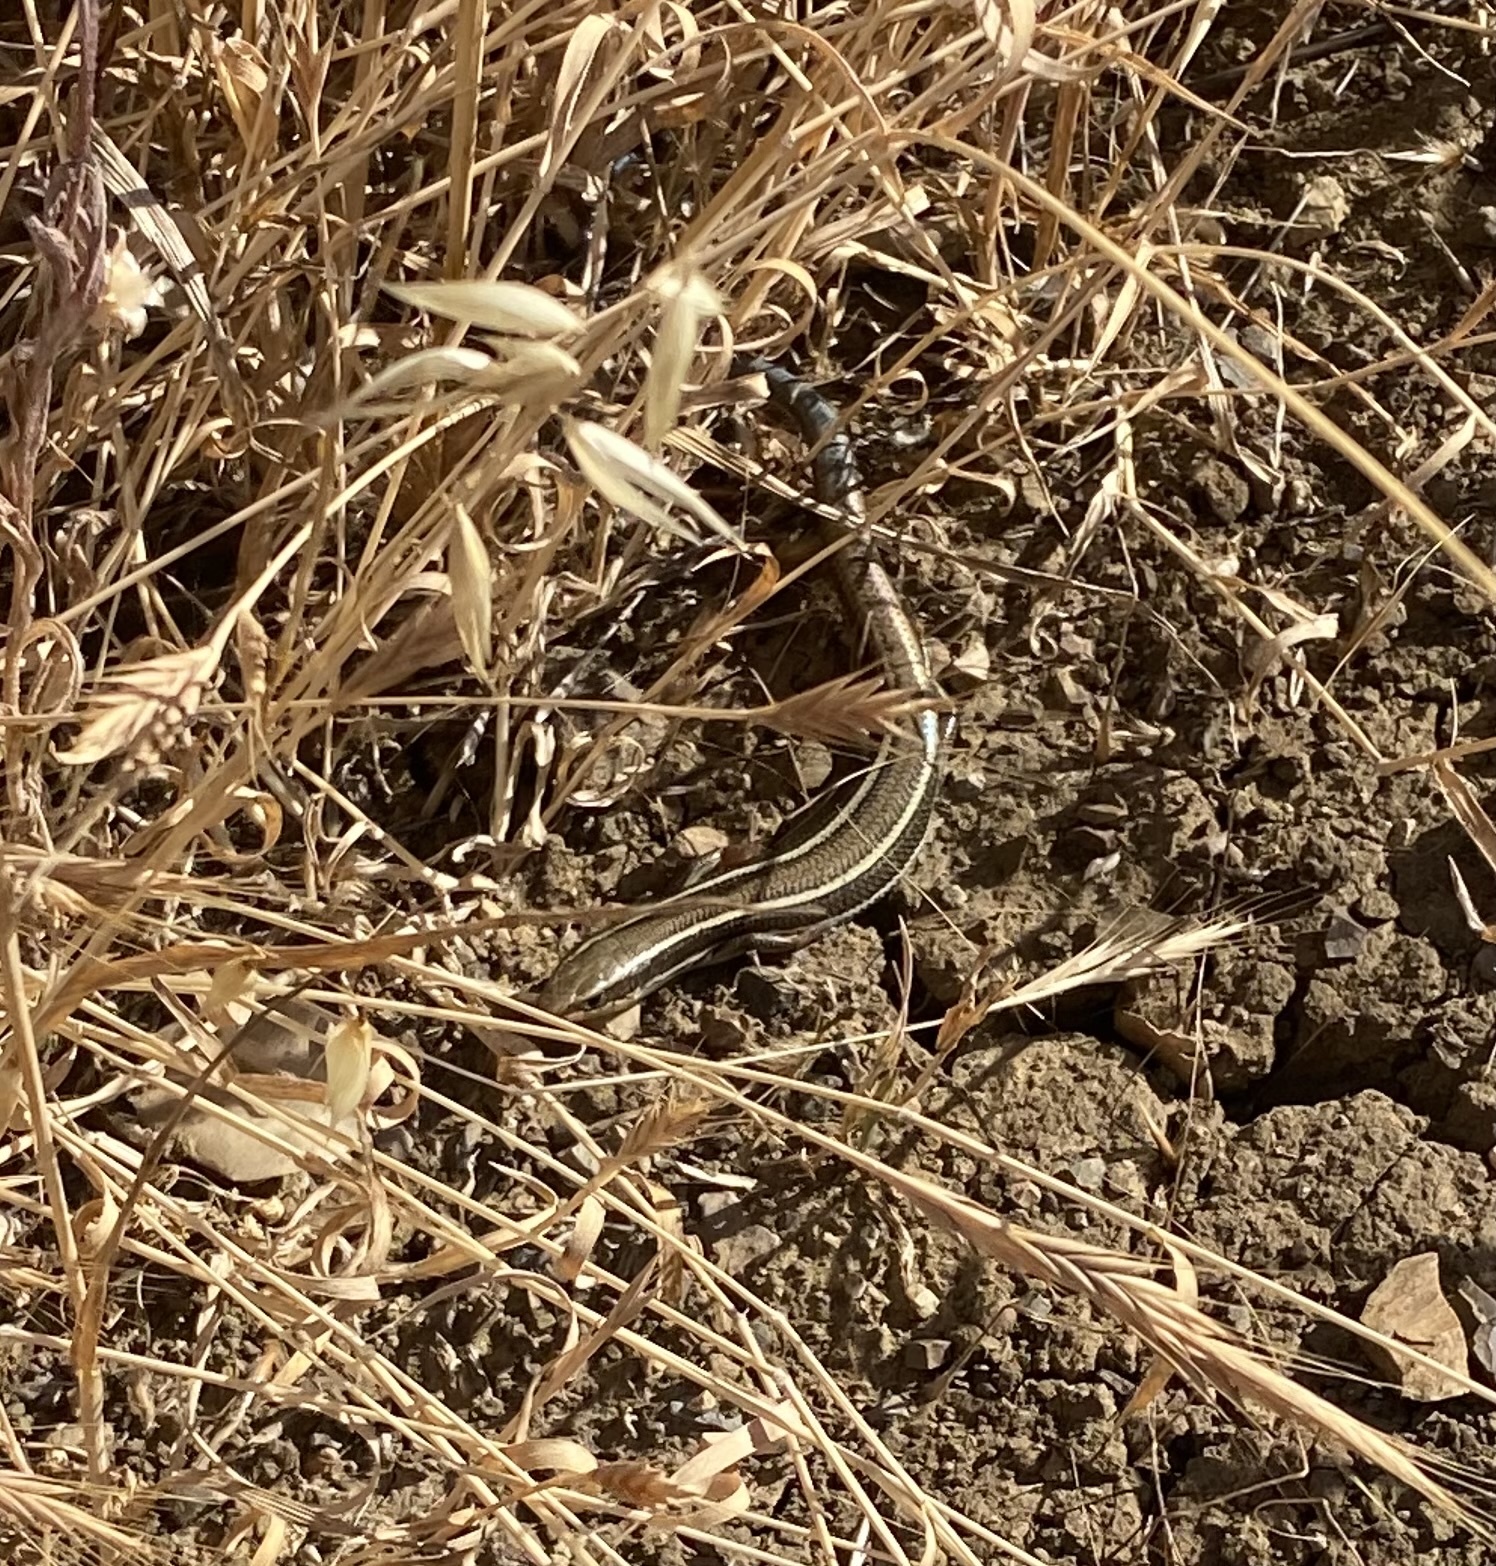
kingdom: Animalia
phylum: Chordata
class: Squamata
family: Scincidae
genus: Plestiodon
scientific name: Plestiodon skiltonianus
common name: Coronado island skink [interparietalis]
